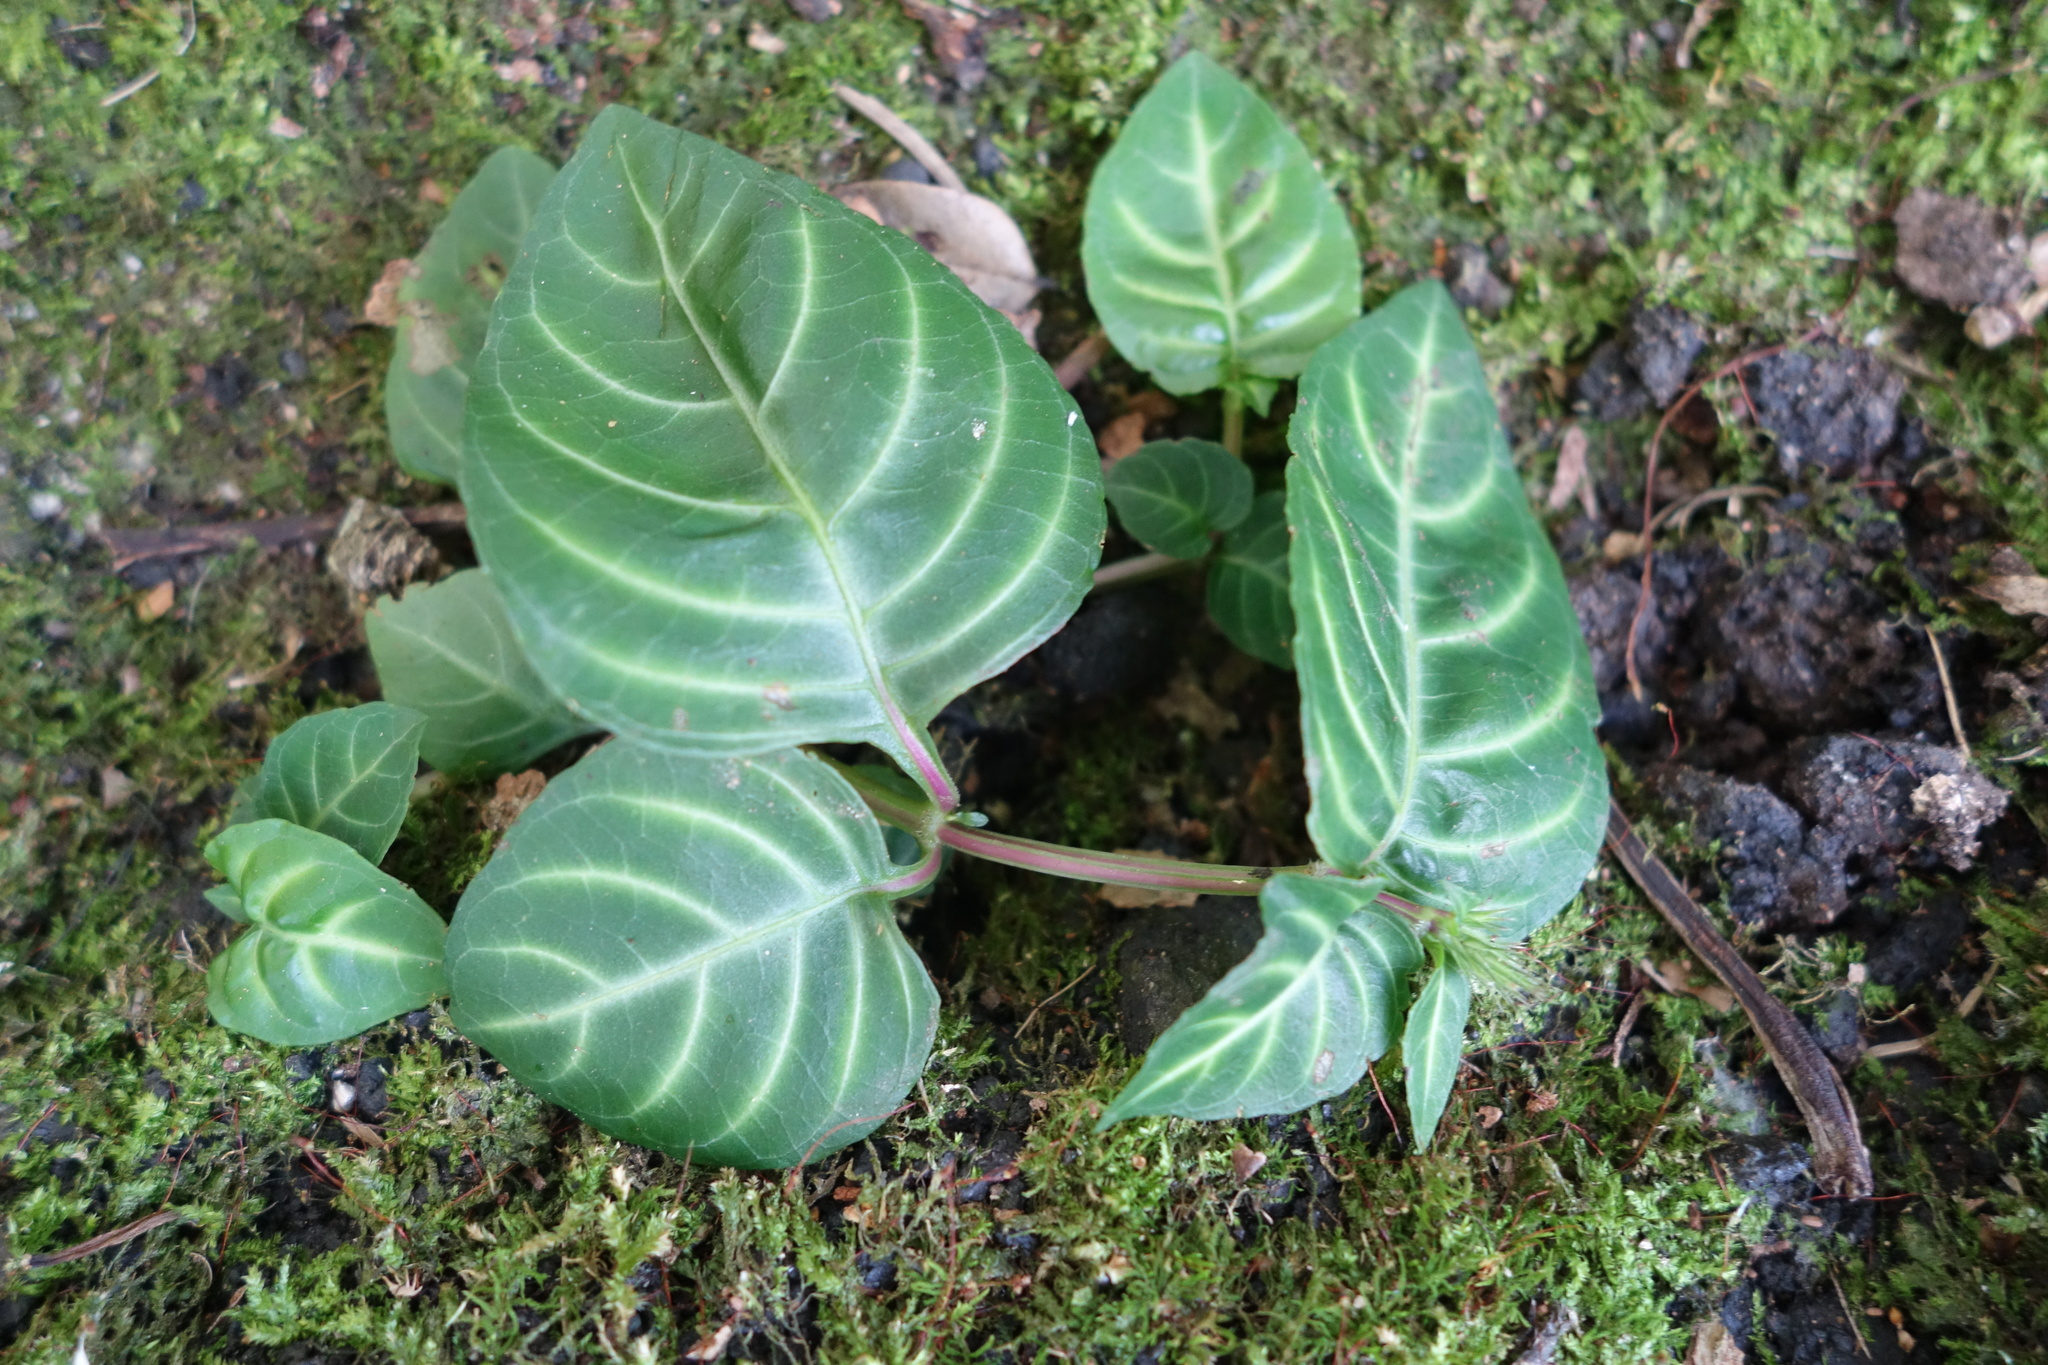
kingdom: Plantae
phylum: Tracheophyta
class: Magnoliopsida
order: Lamiales
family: Acanthaceae
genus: Lepidagathis
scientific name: Lepidagathis inaequalis
